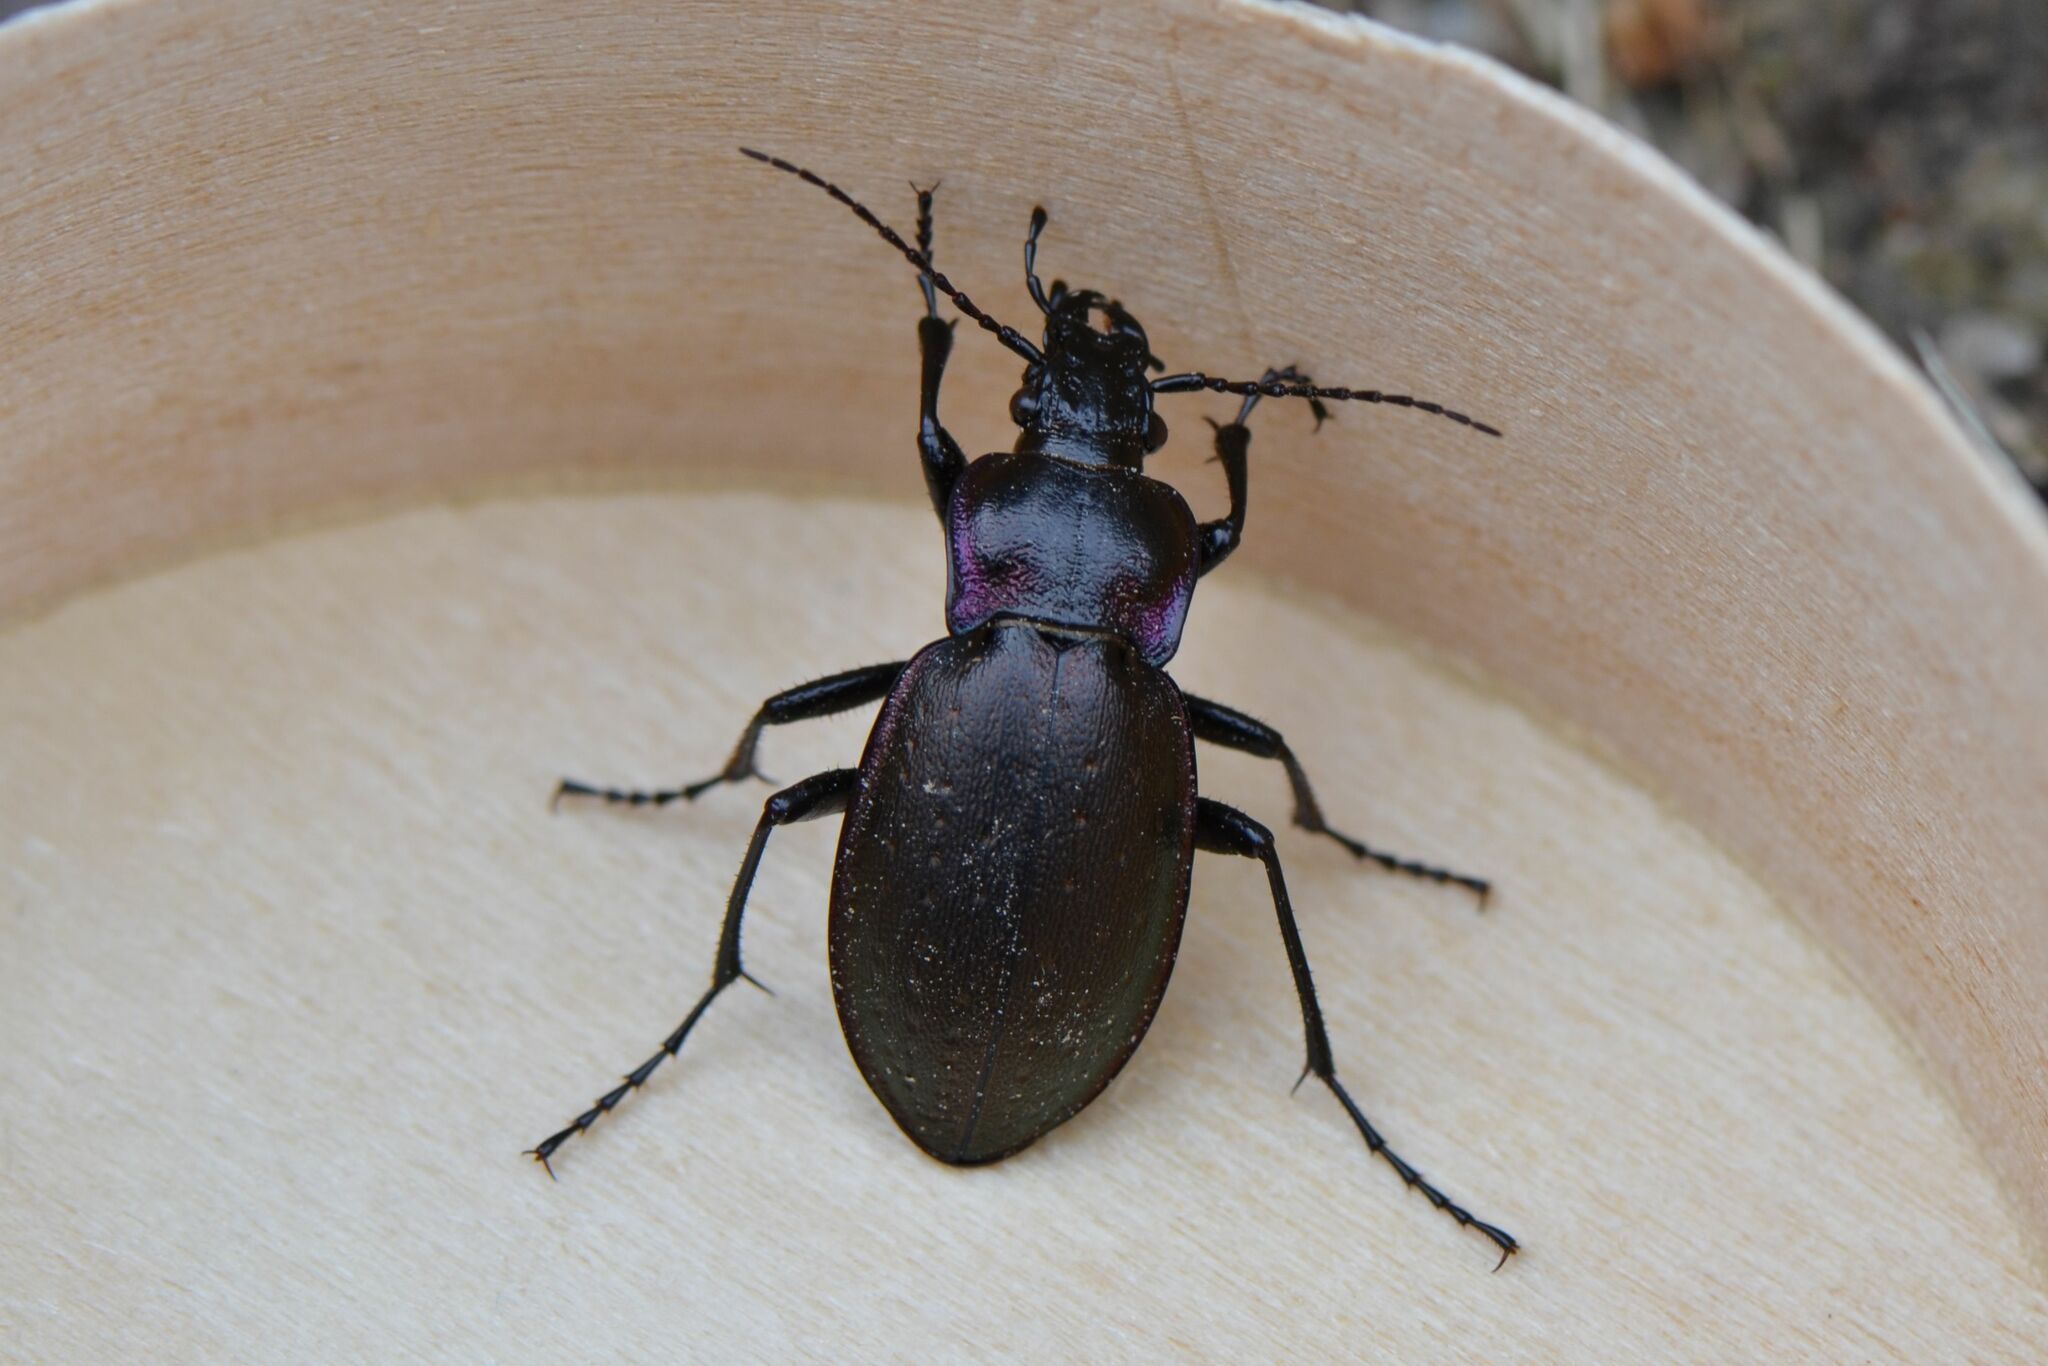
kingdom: Animalia
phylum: Arthropoda
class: Insecta
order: Coleoptera
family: Carabidae
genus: Carabus
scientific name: Carabus nemoralis
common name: European ground beetle
